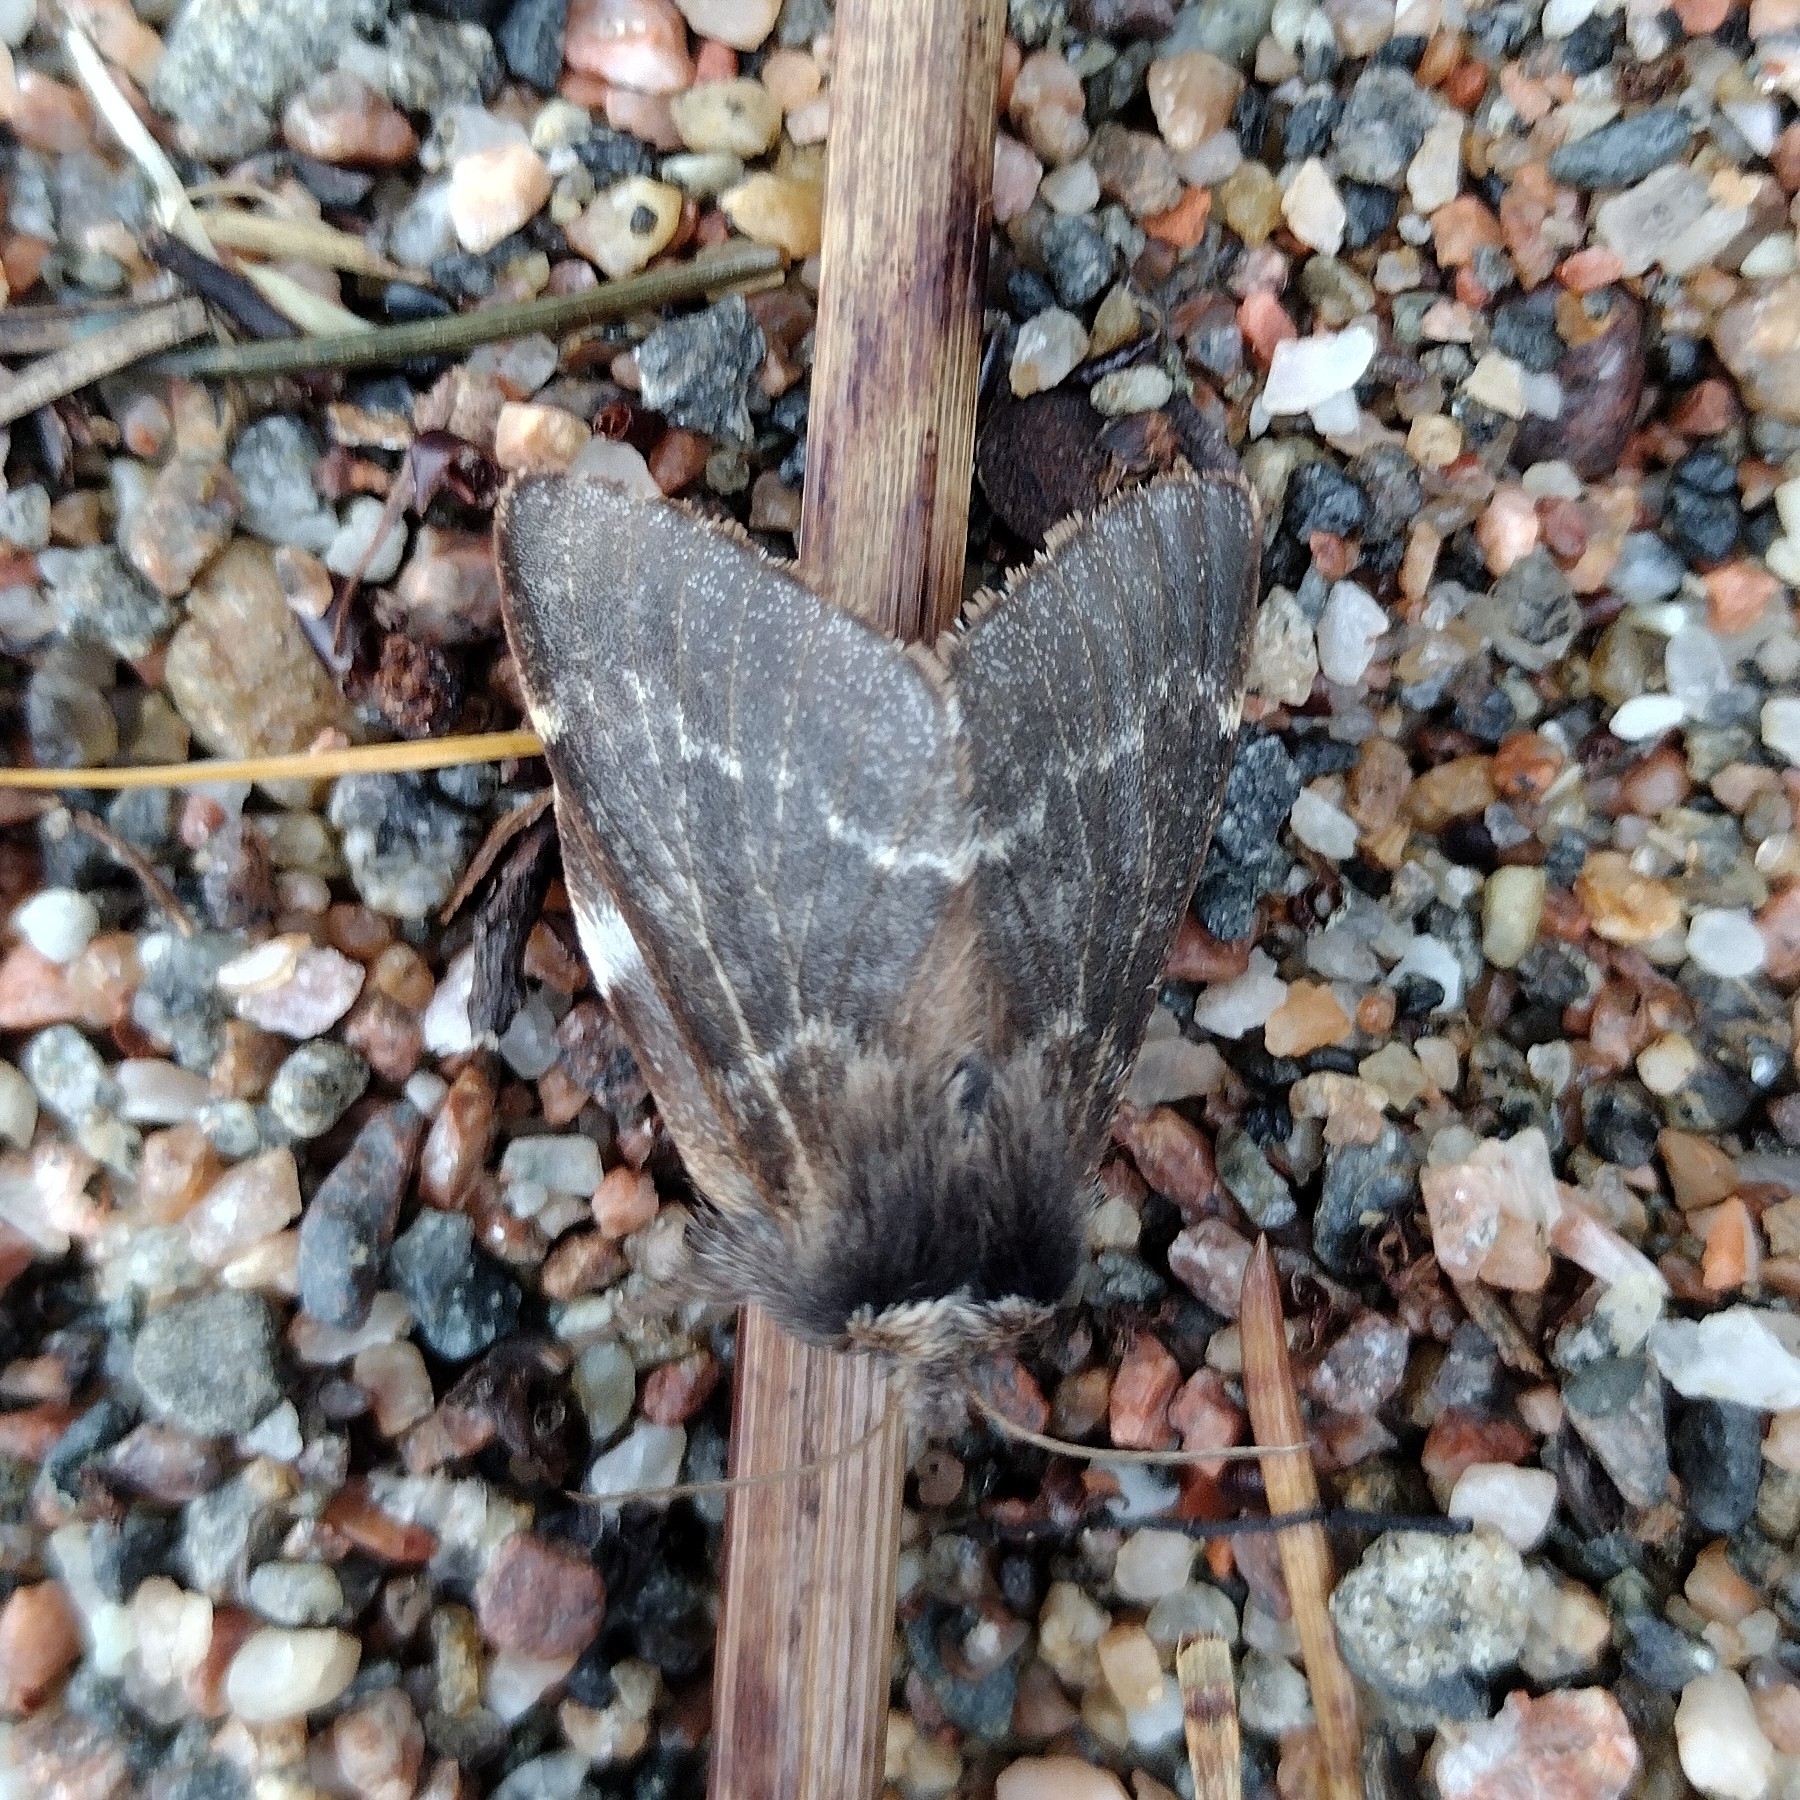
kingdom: Animalia
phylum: Arthropoda
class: Insecta
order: Lepidoptera
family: Lasiocampidae
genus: Poecilocampa
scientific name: Poecilocampa populi
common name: December moth
